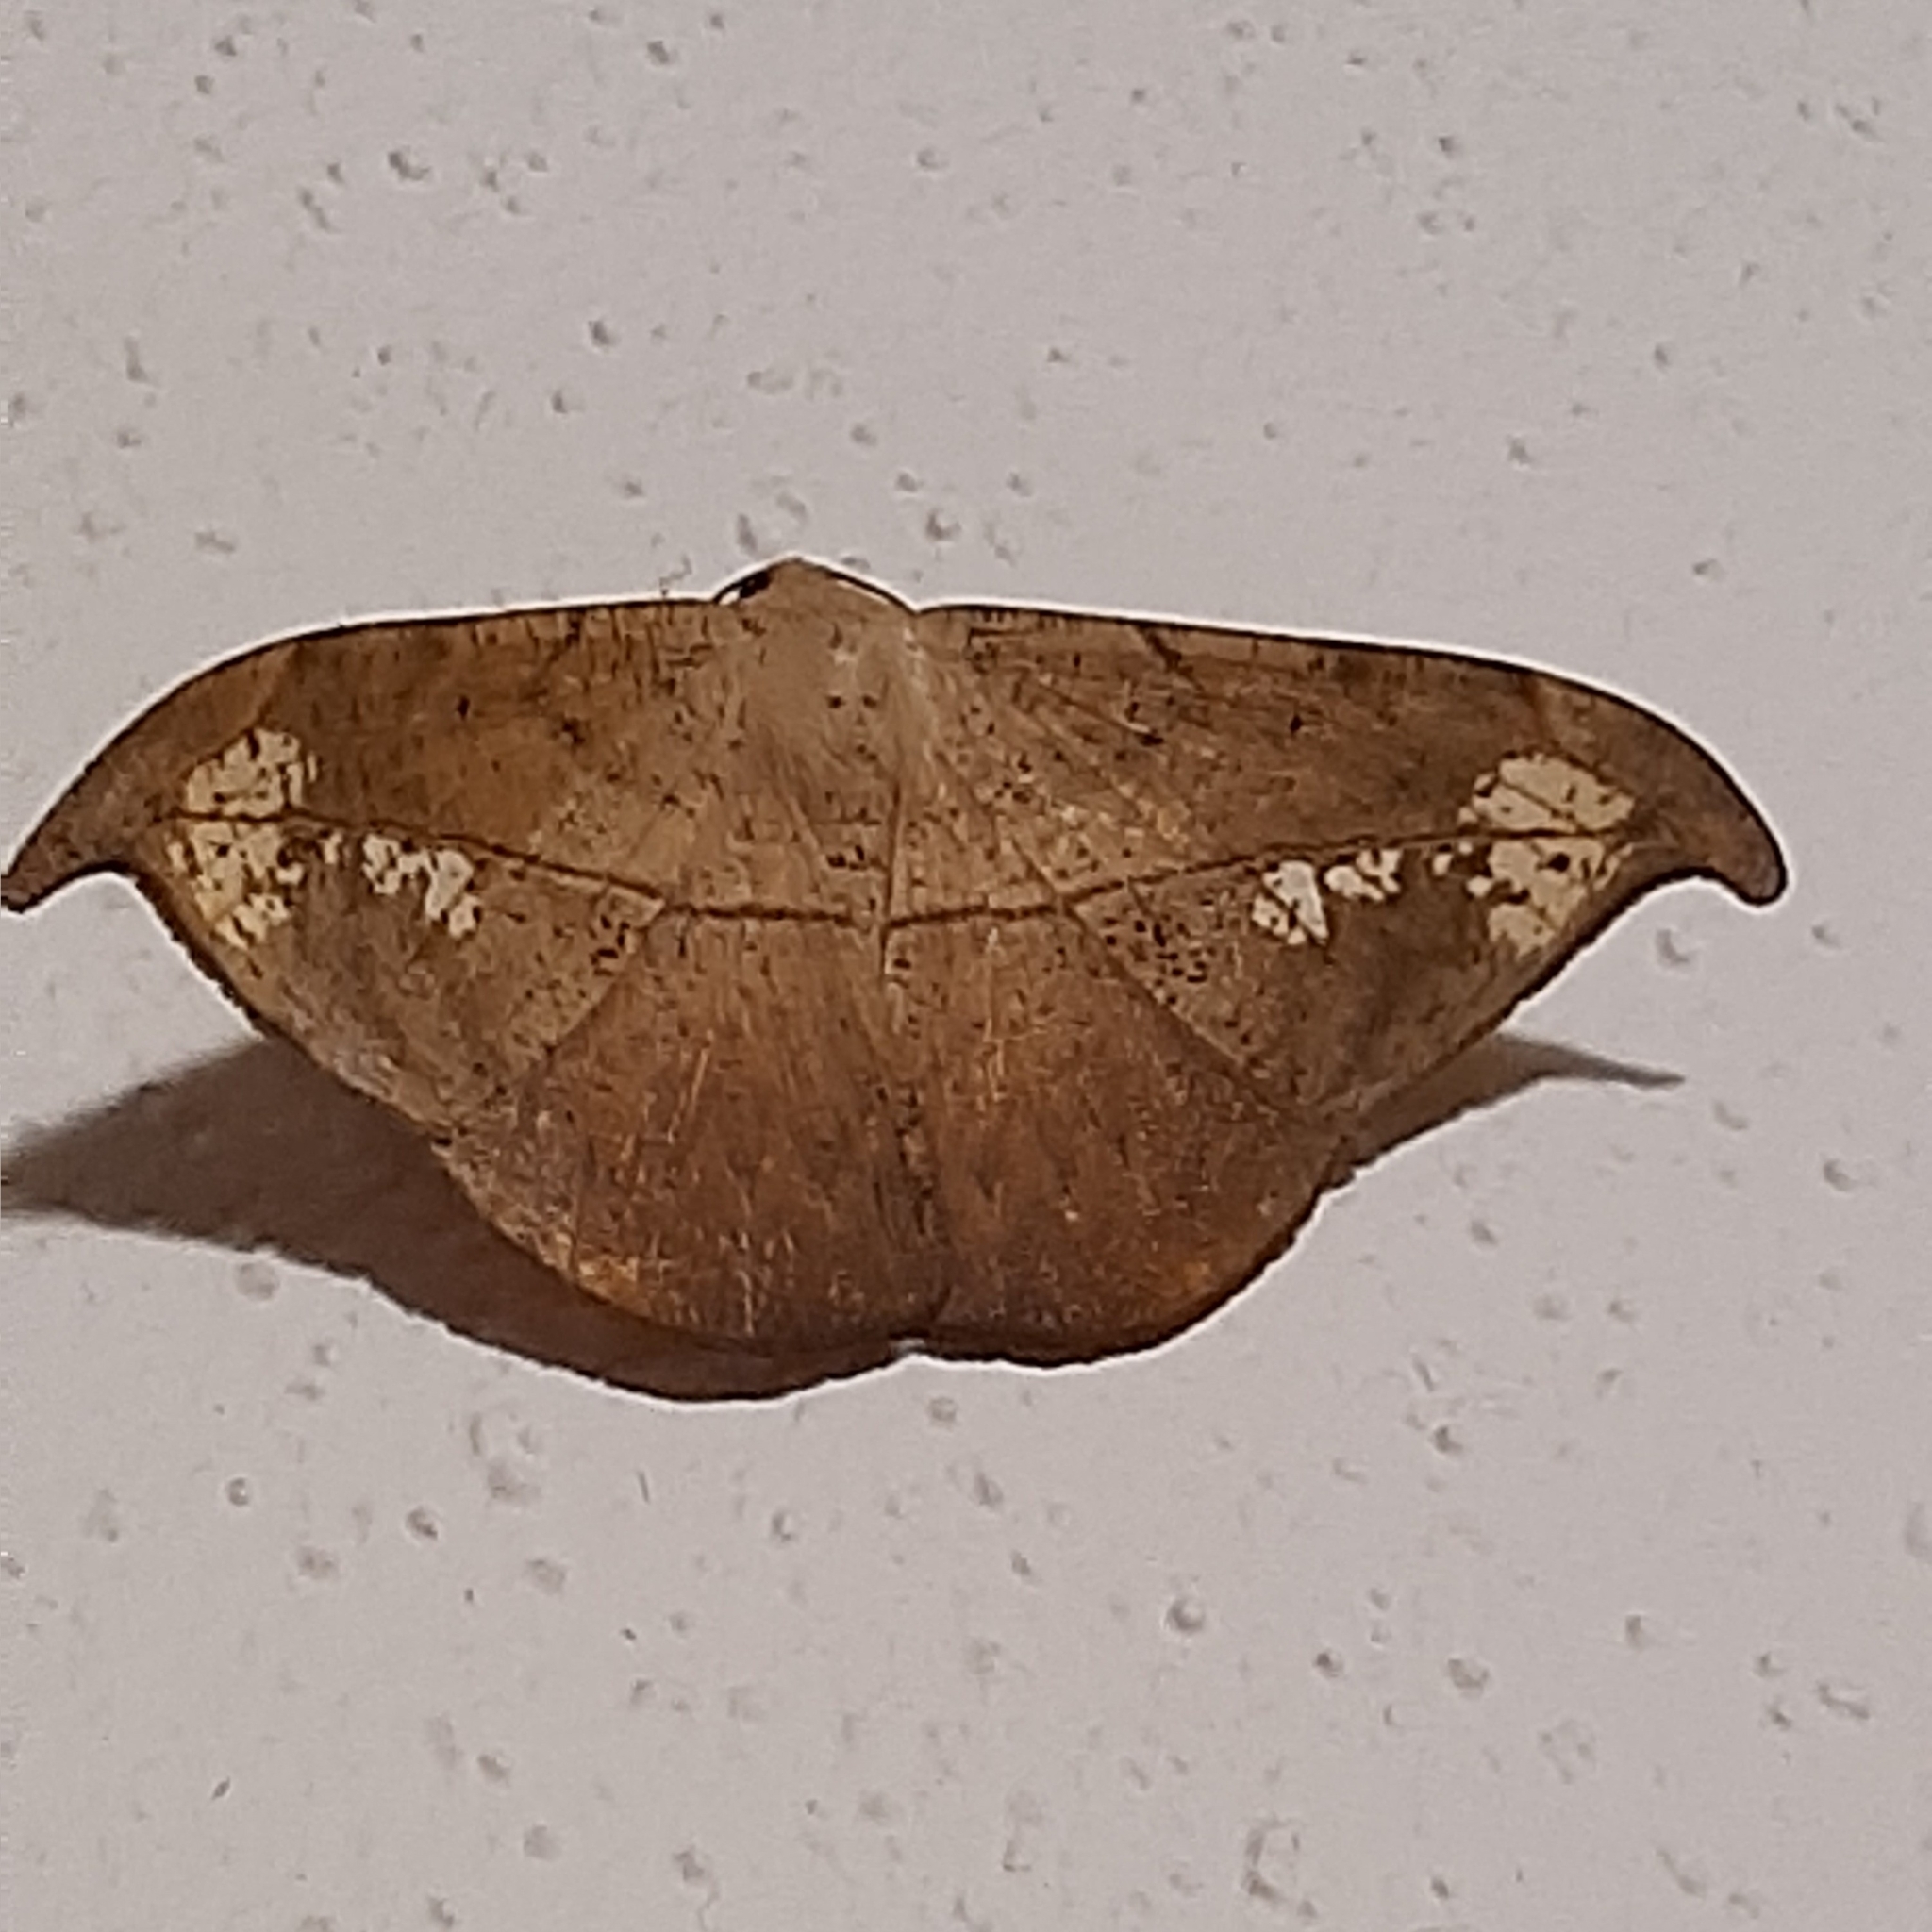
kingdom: Animalia
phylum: Arthropoda
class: Insecta
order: Lepidoptera
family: Geometridae
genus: Oxydia
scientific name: Oxydia masthala
